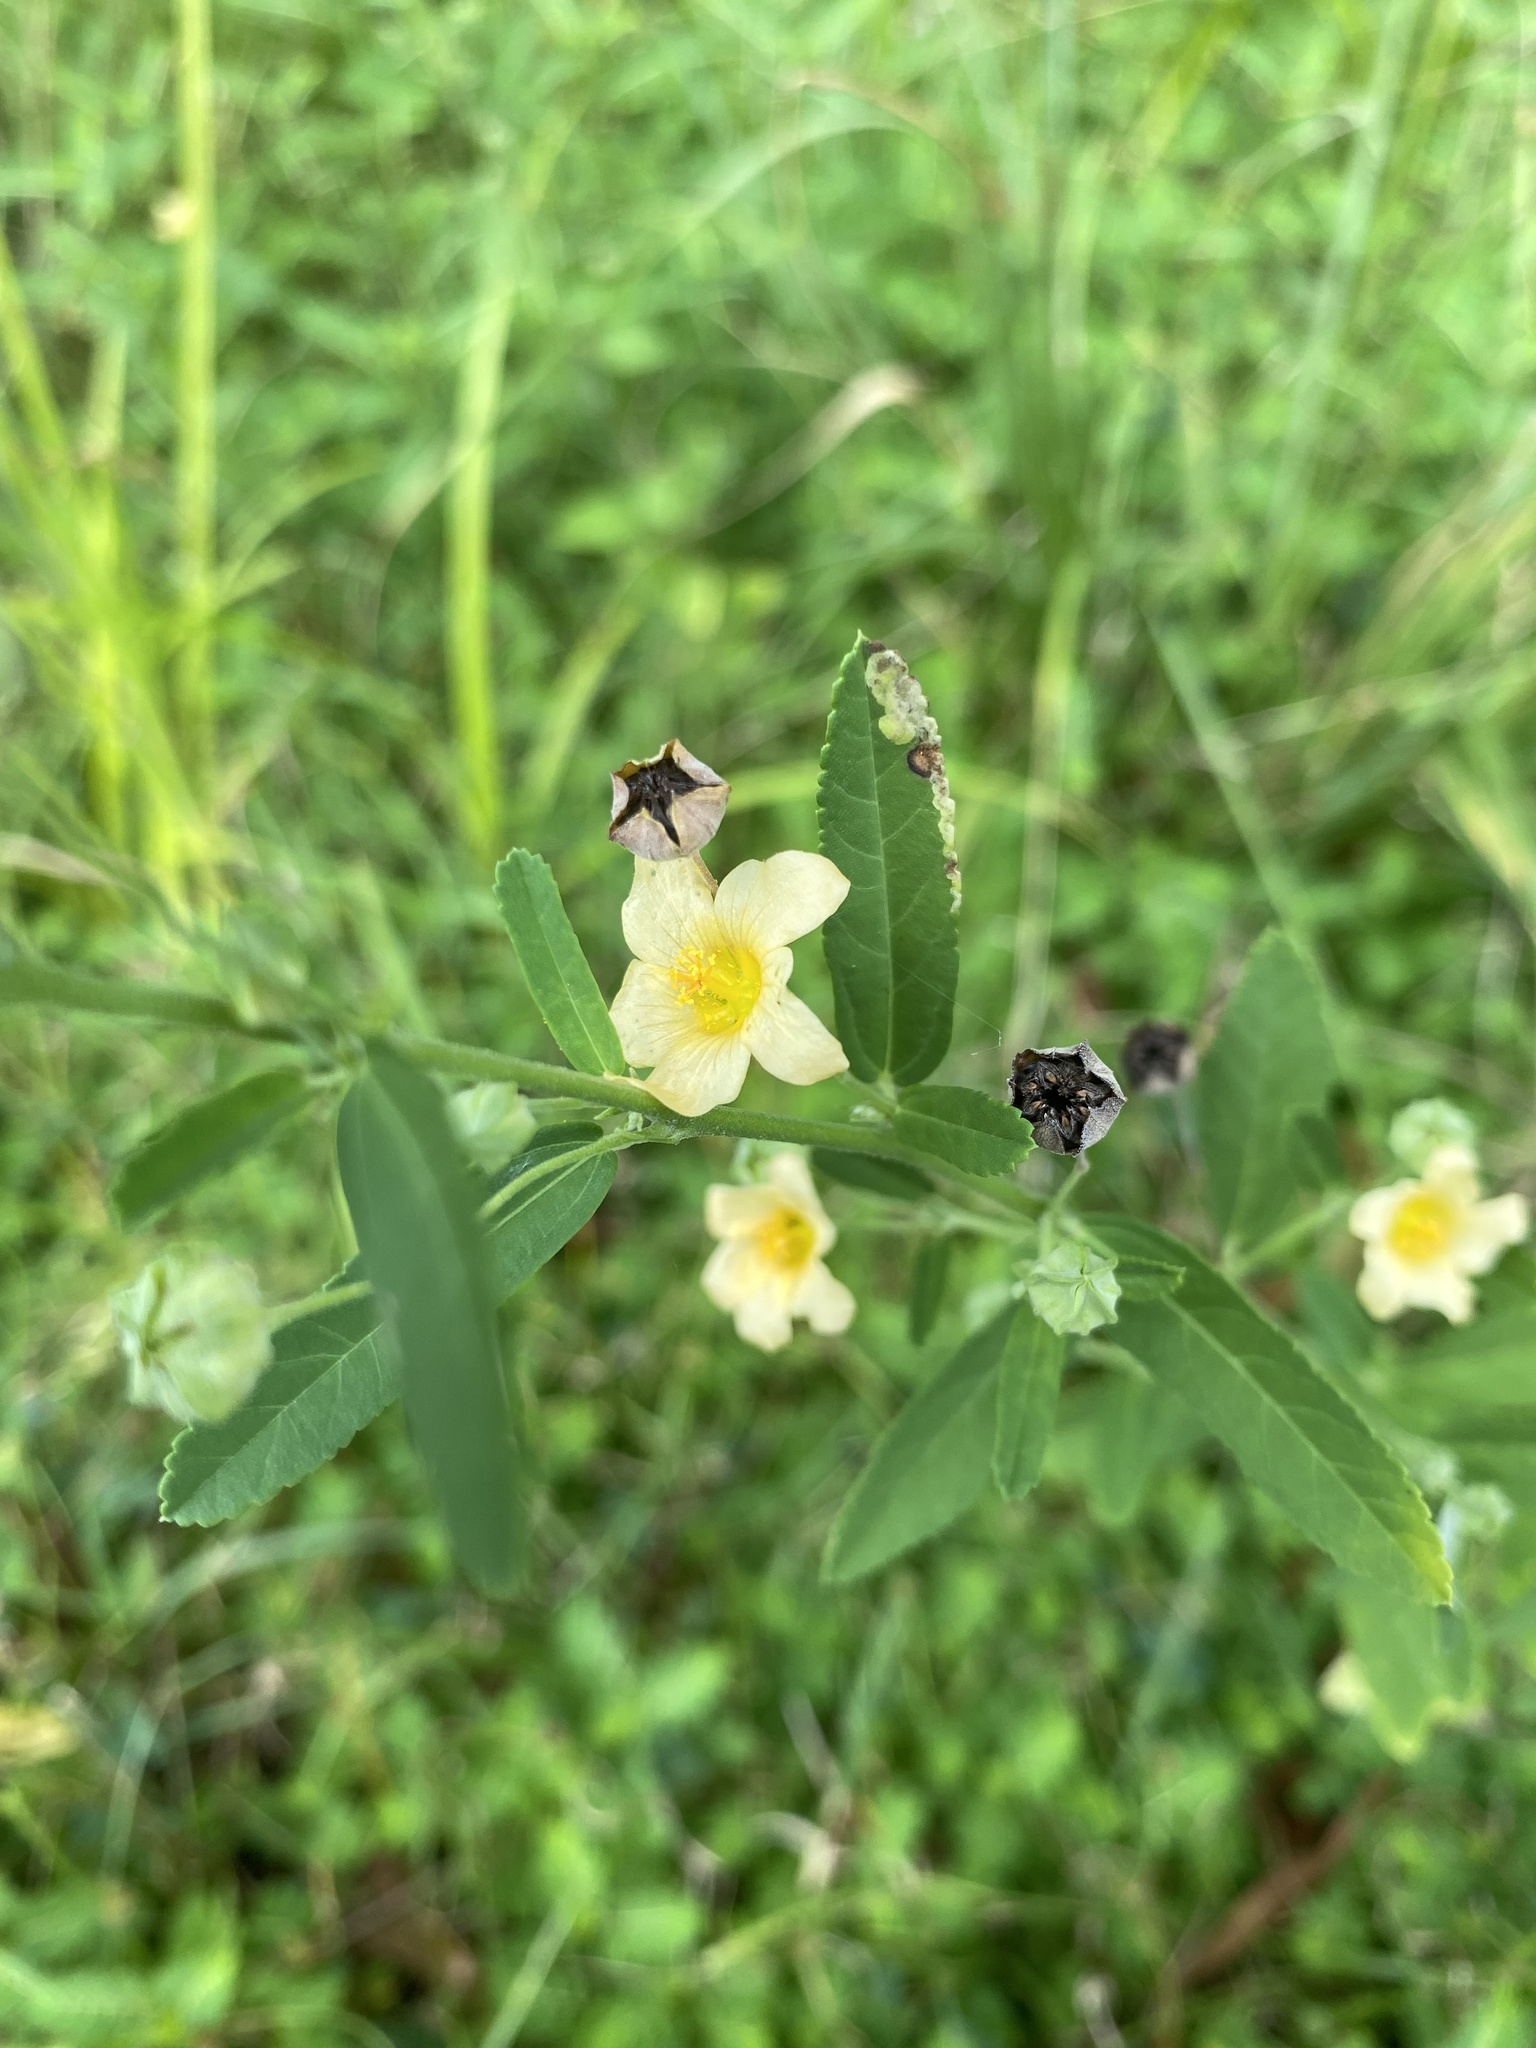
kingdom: Plantae
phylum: Tracheophyta
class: Magnoliopsida
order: Malvales
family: Malvaceae
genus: Sida
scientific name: Sida rhombifolia
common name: Queensland-hemp
